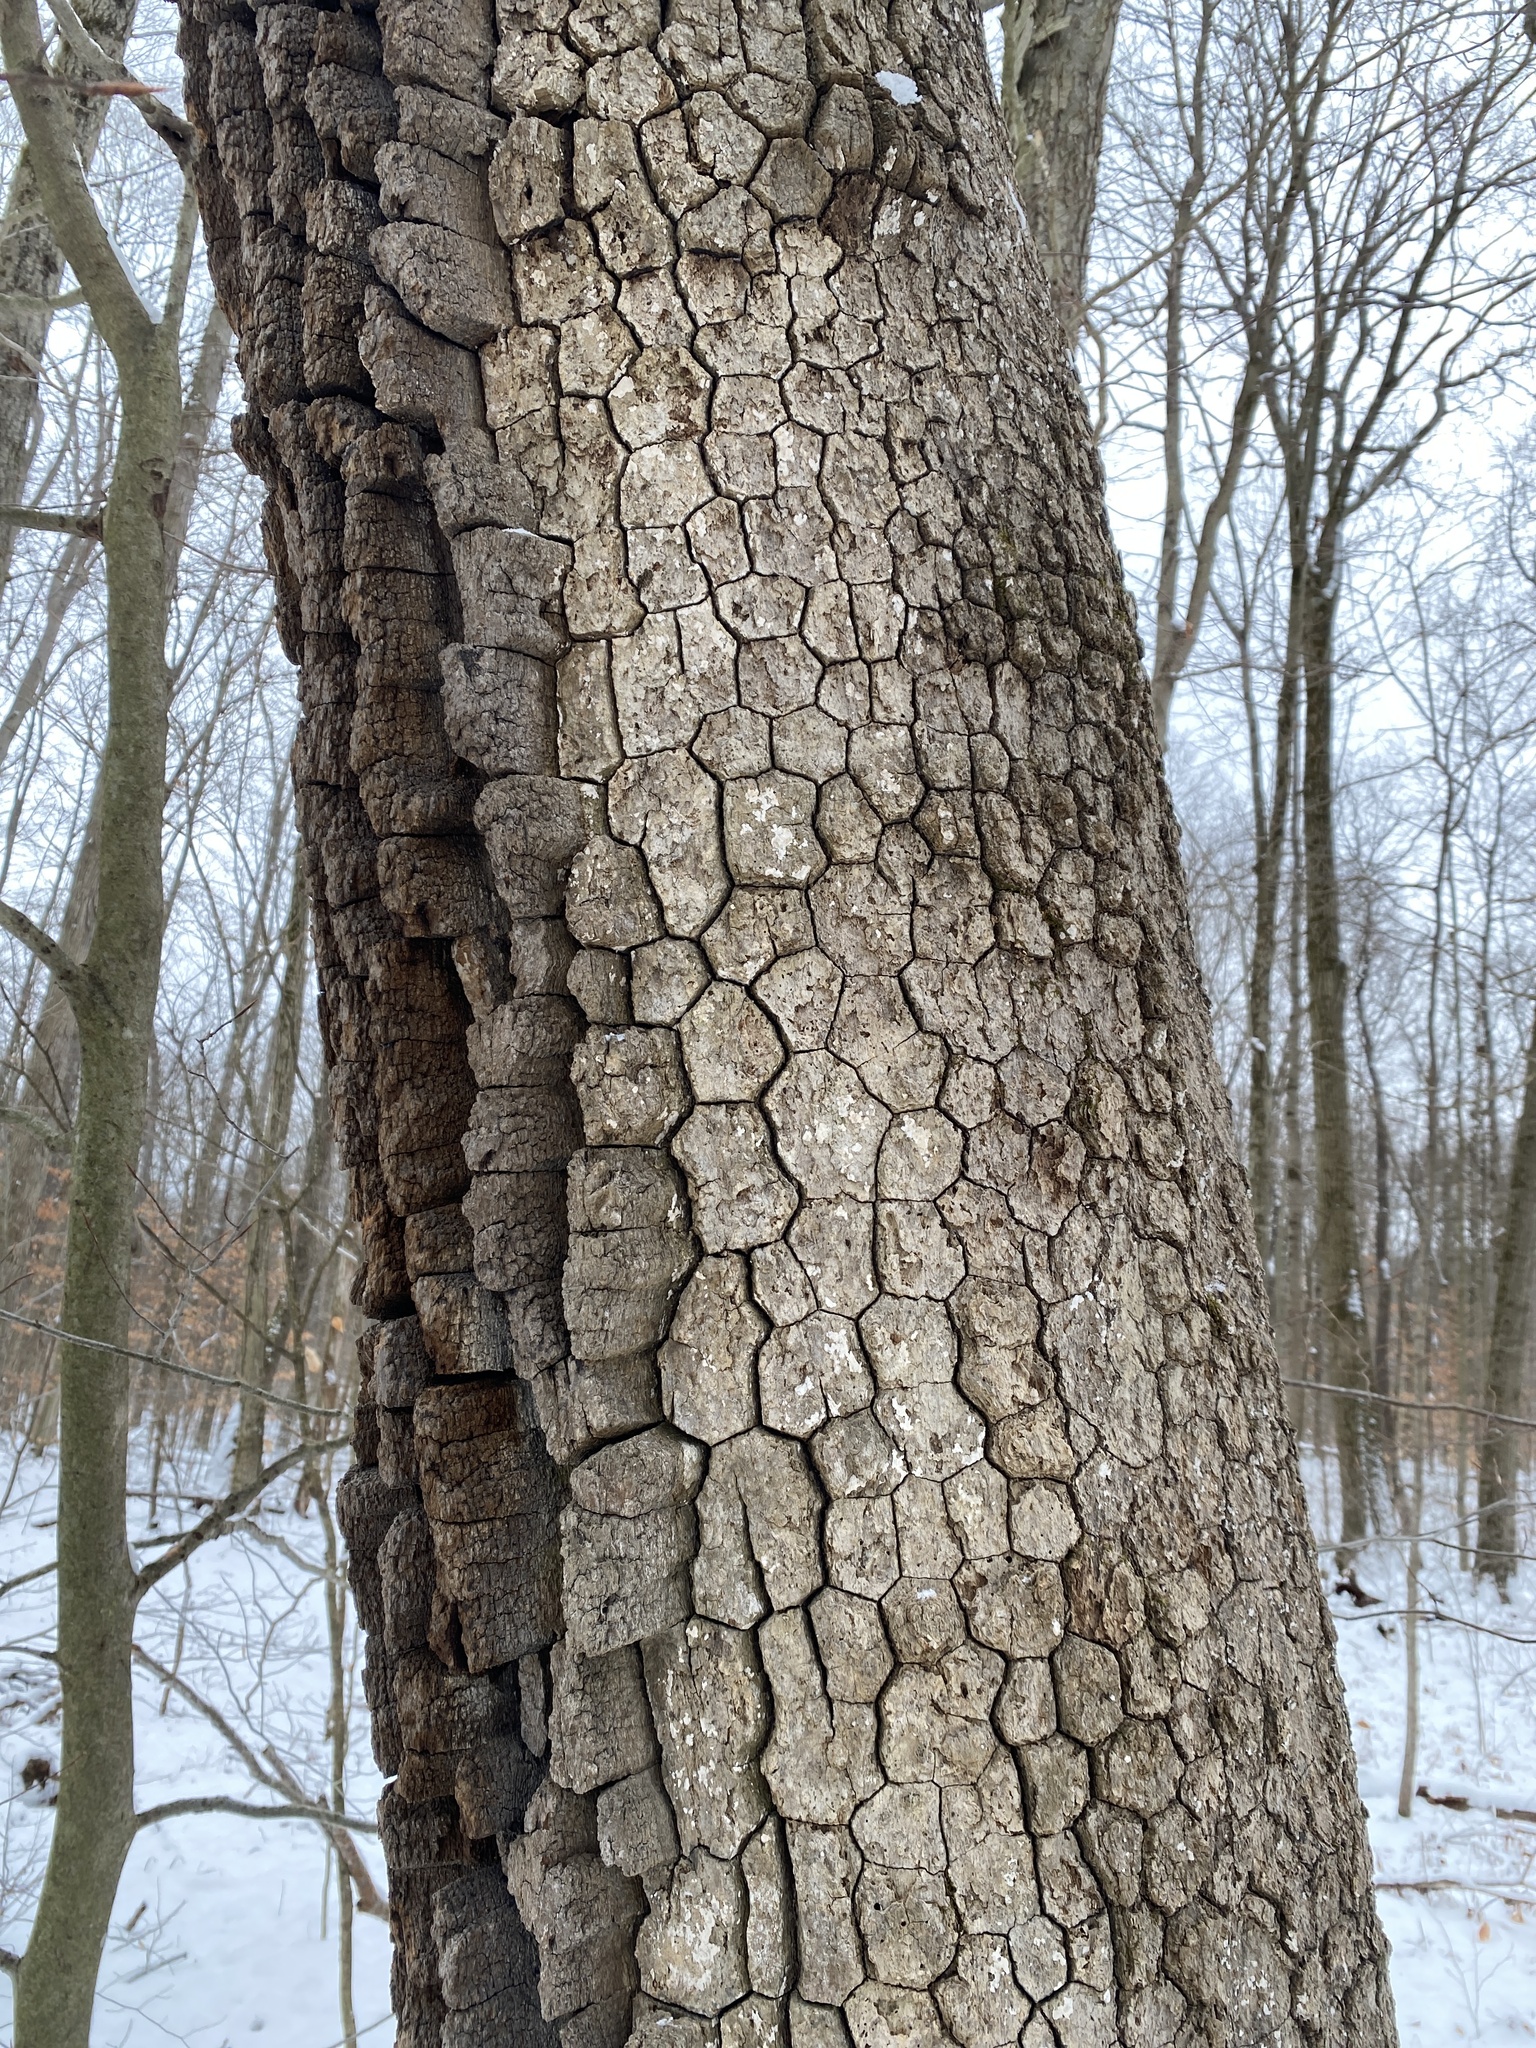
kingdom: Plantae
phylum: Tracheophyta
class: Magnoliopsida
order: Cornales
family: Nyssaceae
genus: Nyssa
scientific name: Nyssa sylvatica
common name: Black tupelo
